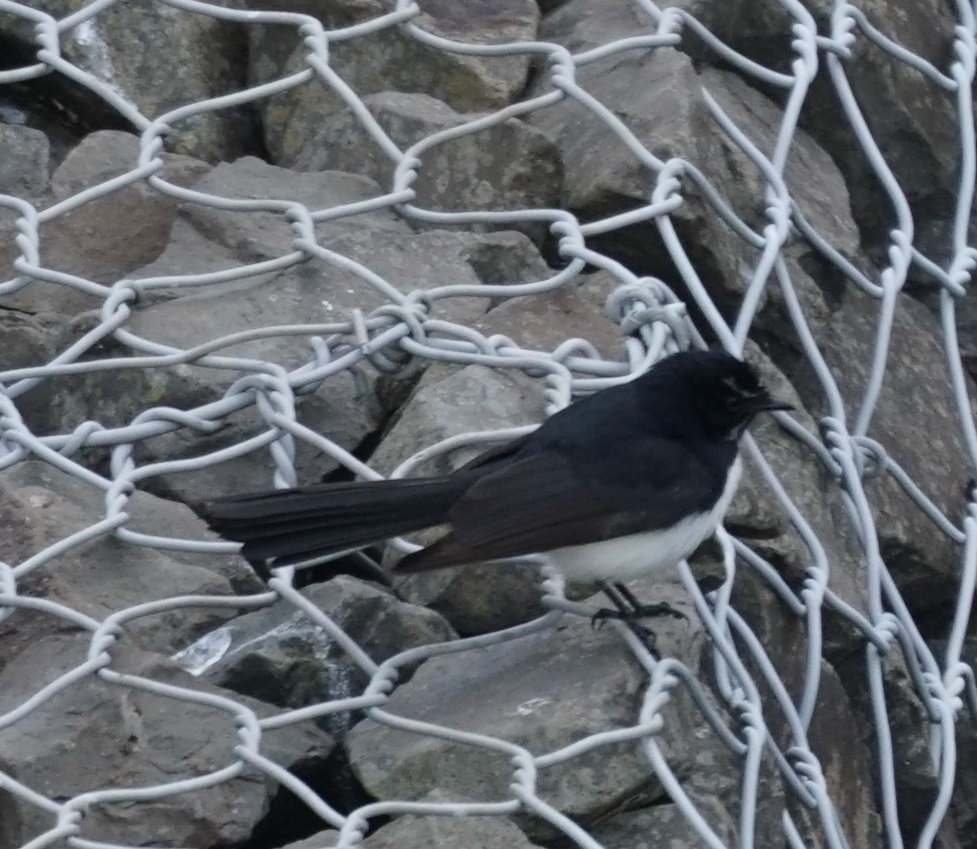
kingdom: Animalia
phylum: Chordata
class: Aves
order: Passeriformes
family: Rhipiduridae
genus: Rhipidura
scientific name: Rhipidura leucophrys
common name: Willie wagtail
